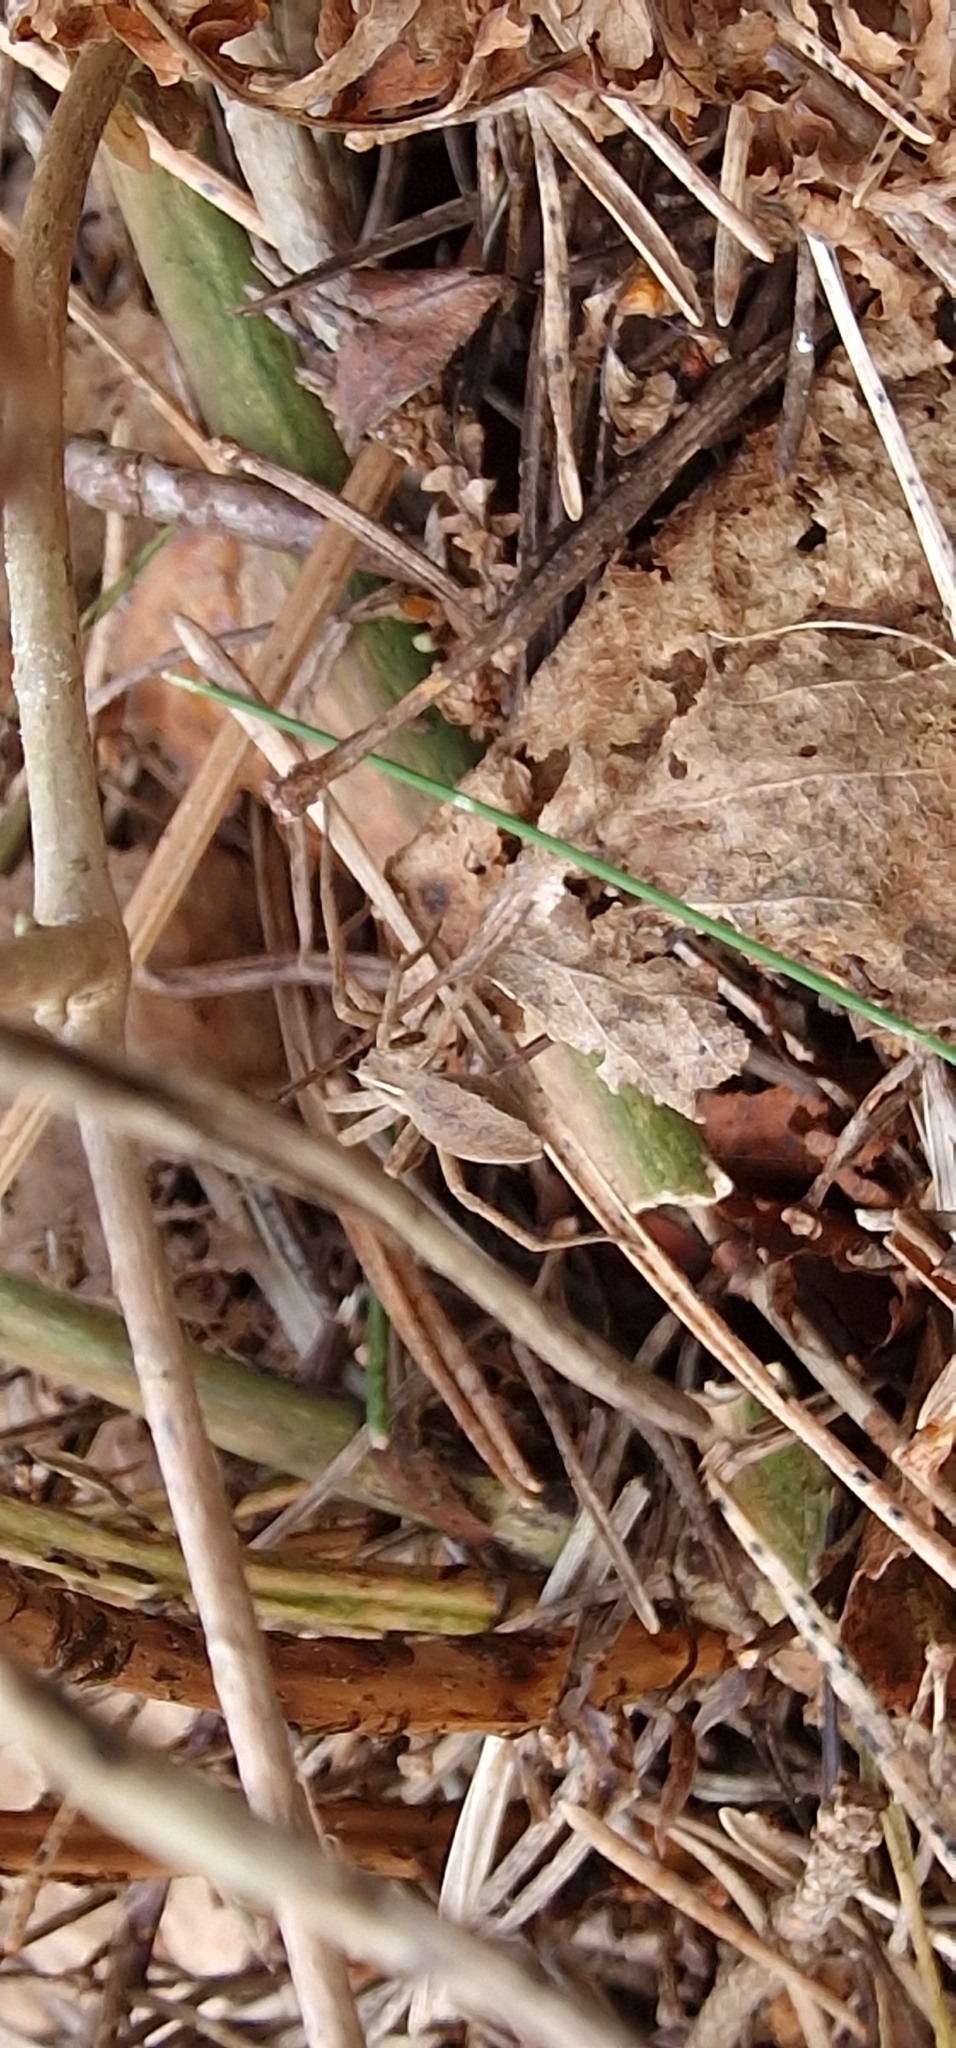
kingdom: Animalia
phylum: Arthropoda
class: Arachnida
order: Araneae
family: Pisauridae
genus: Pisaura
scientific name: Pisaura mirabilis
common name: Tent spider
